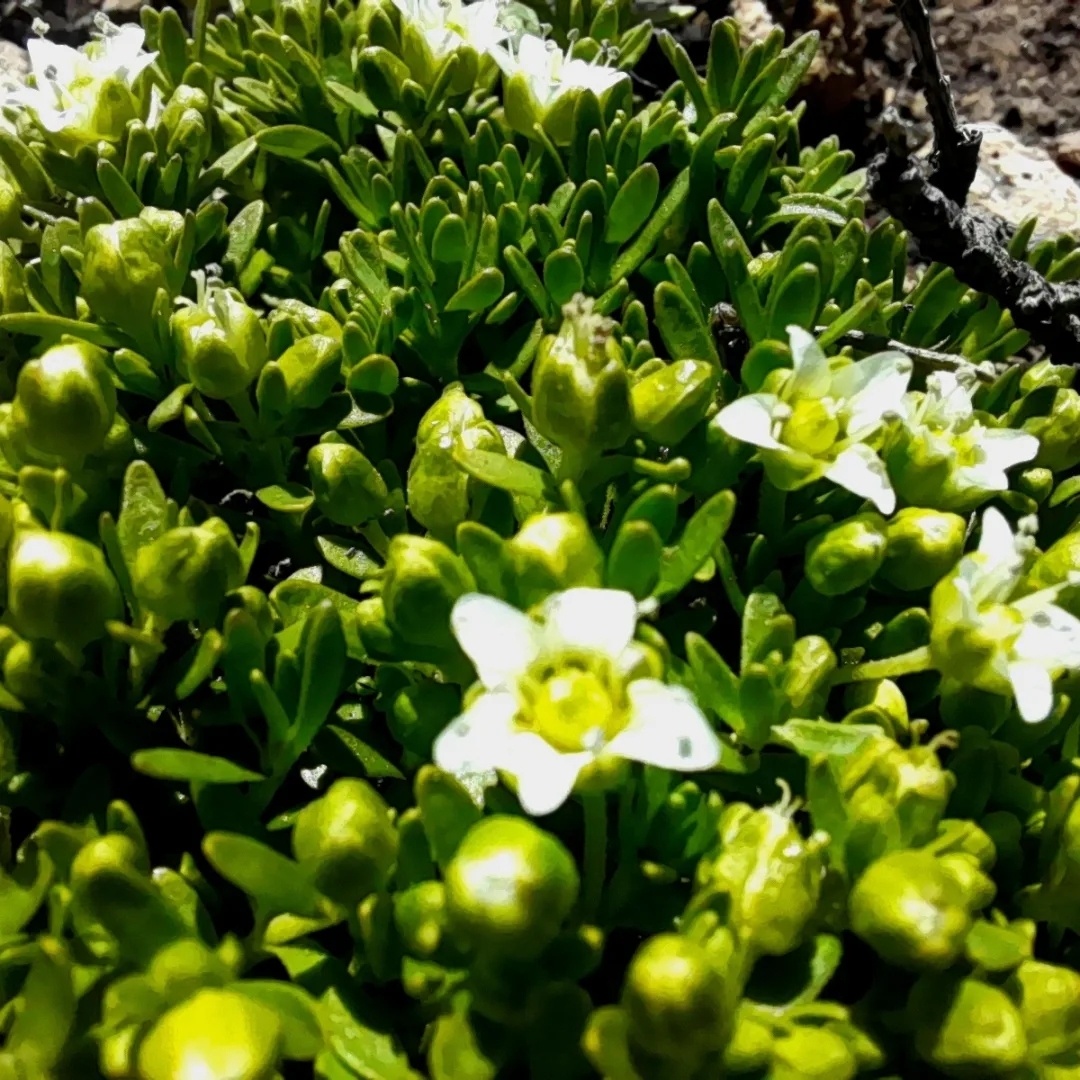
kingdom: Plantae
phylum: Tracheophyta
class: Magnoliopsida
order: Caryophyllales
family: Caryophyllaceae
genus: Arenaria
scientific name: Arenaria serpens
